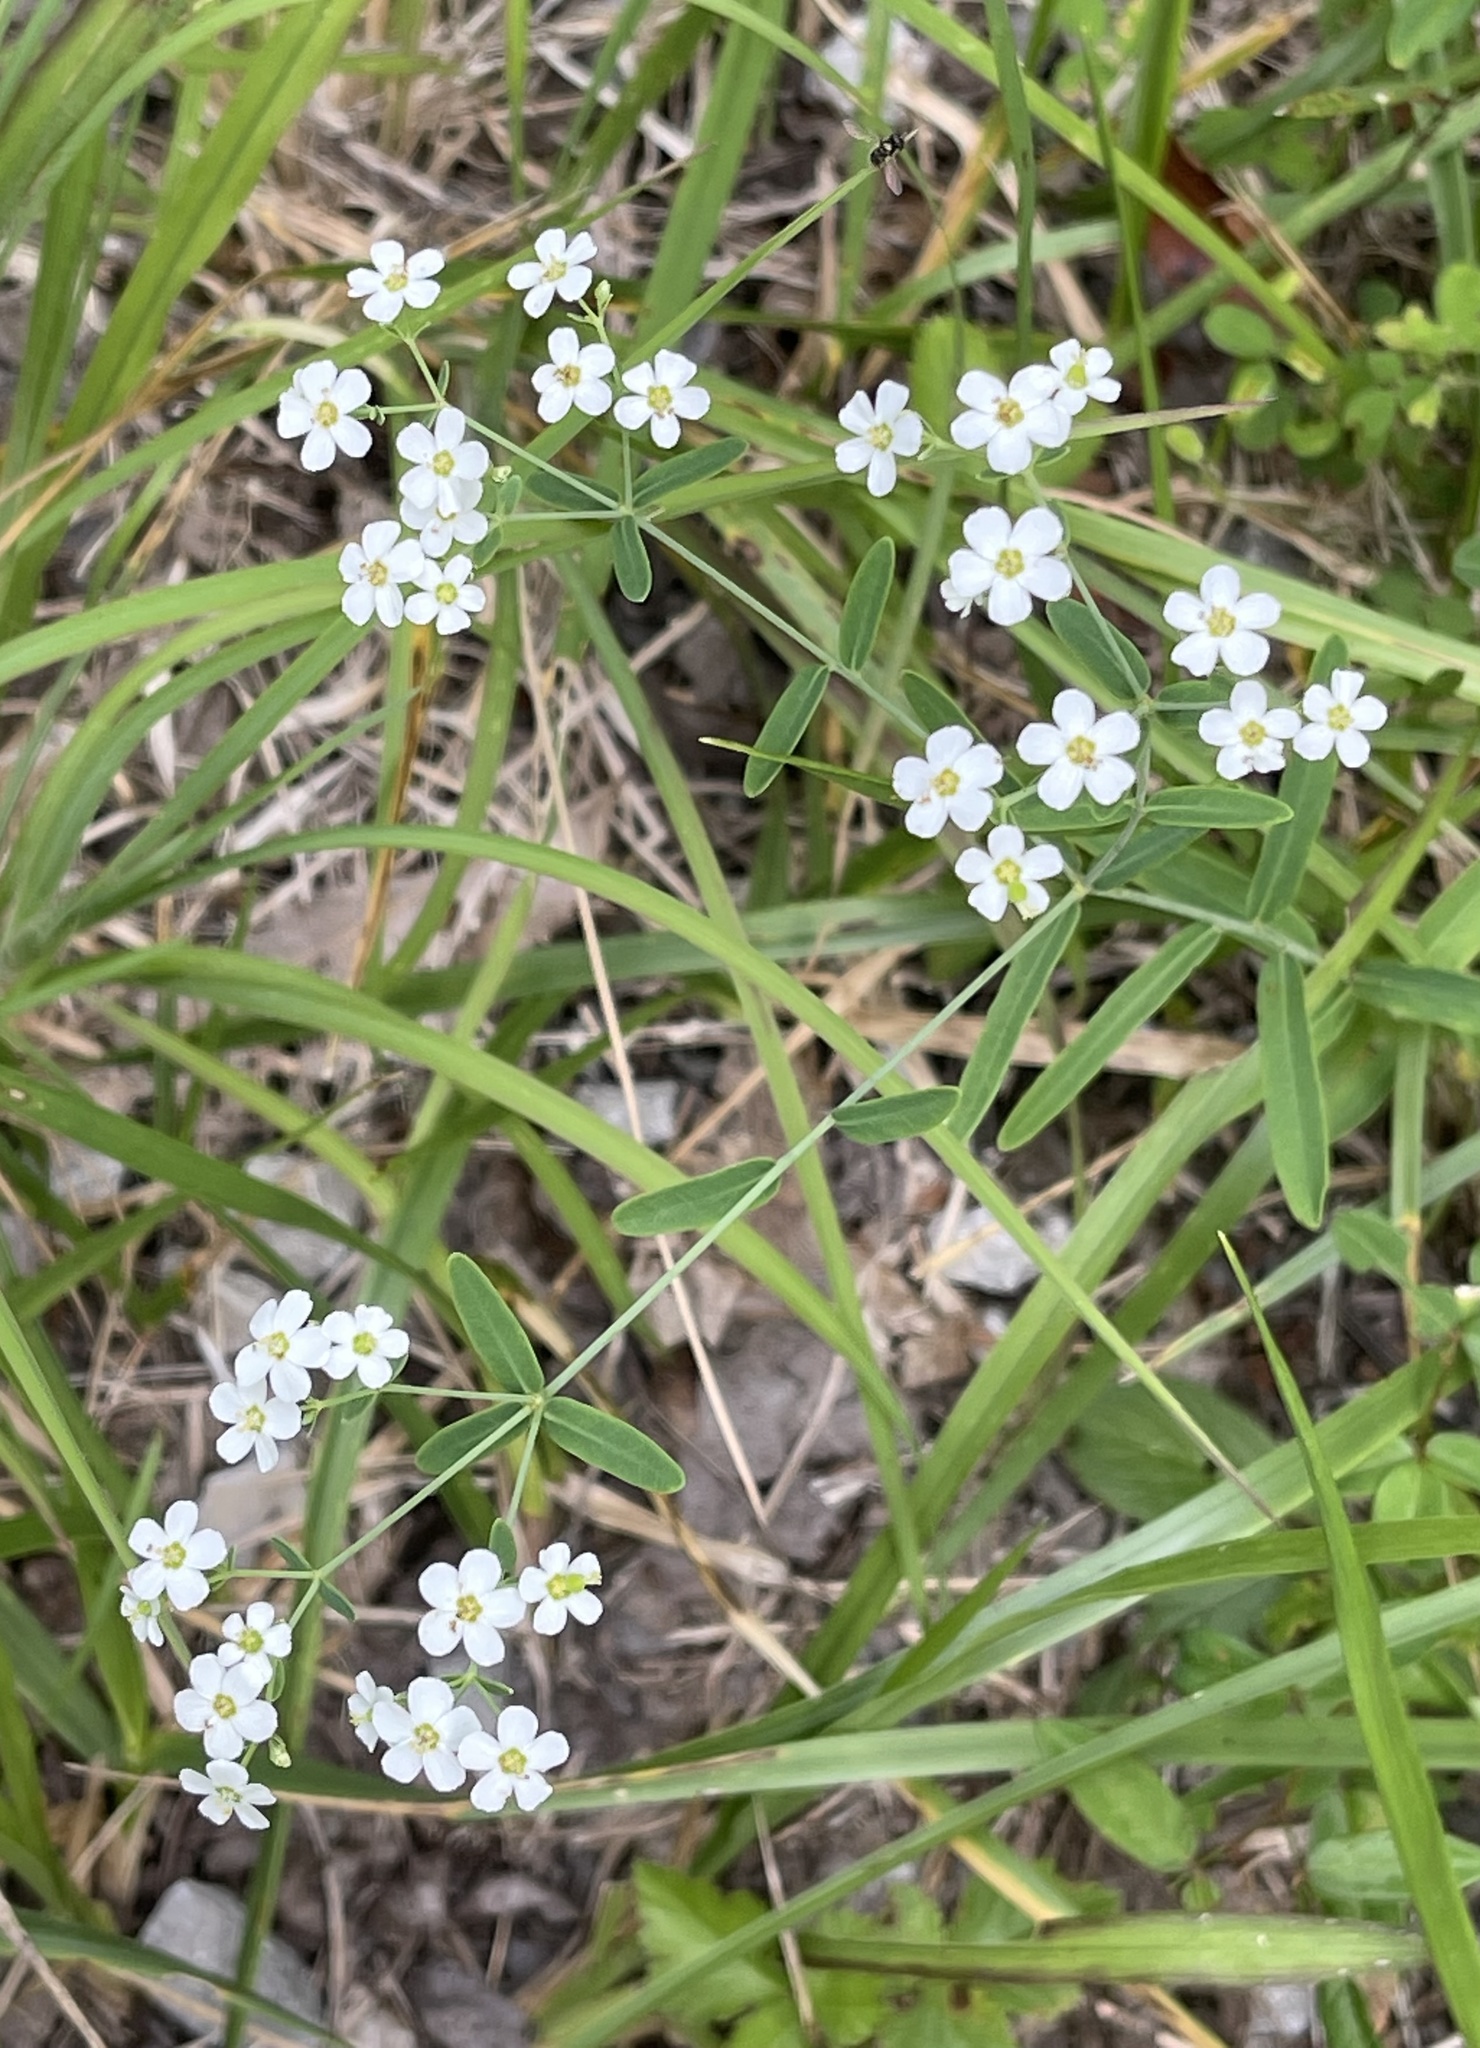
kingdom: Plantae
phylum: Tracheophyta
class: Magnoliopsida
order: Malpighiales
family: Euphorbiaceae
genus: Euphorbia
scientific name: Euphorbia corollata
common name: Flowering spurge
